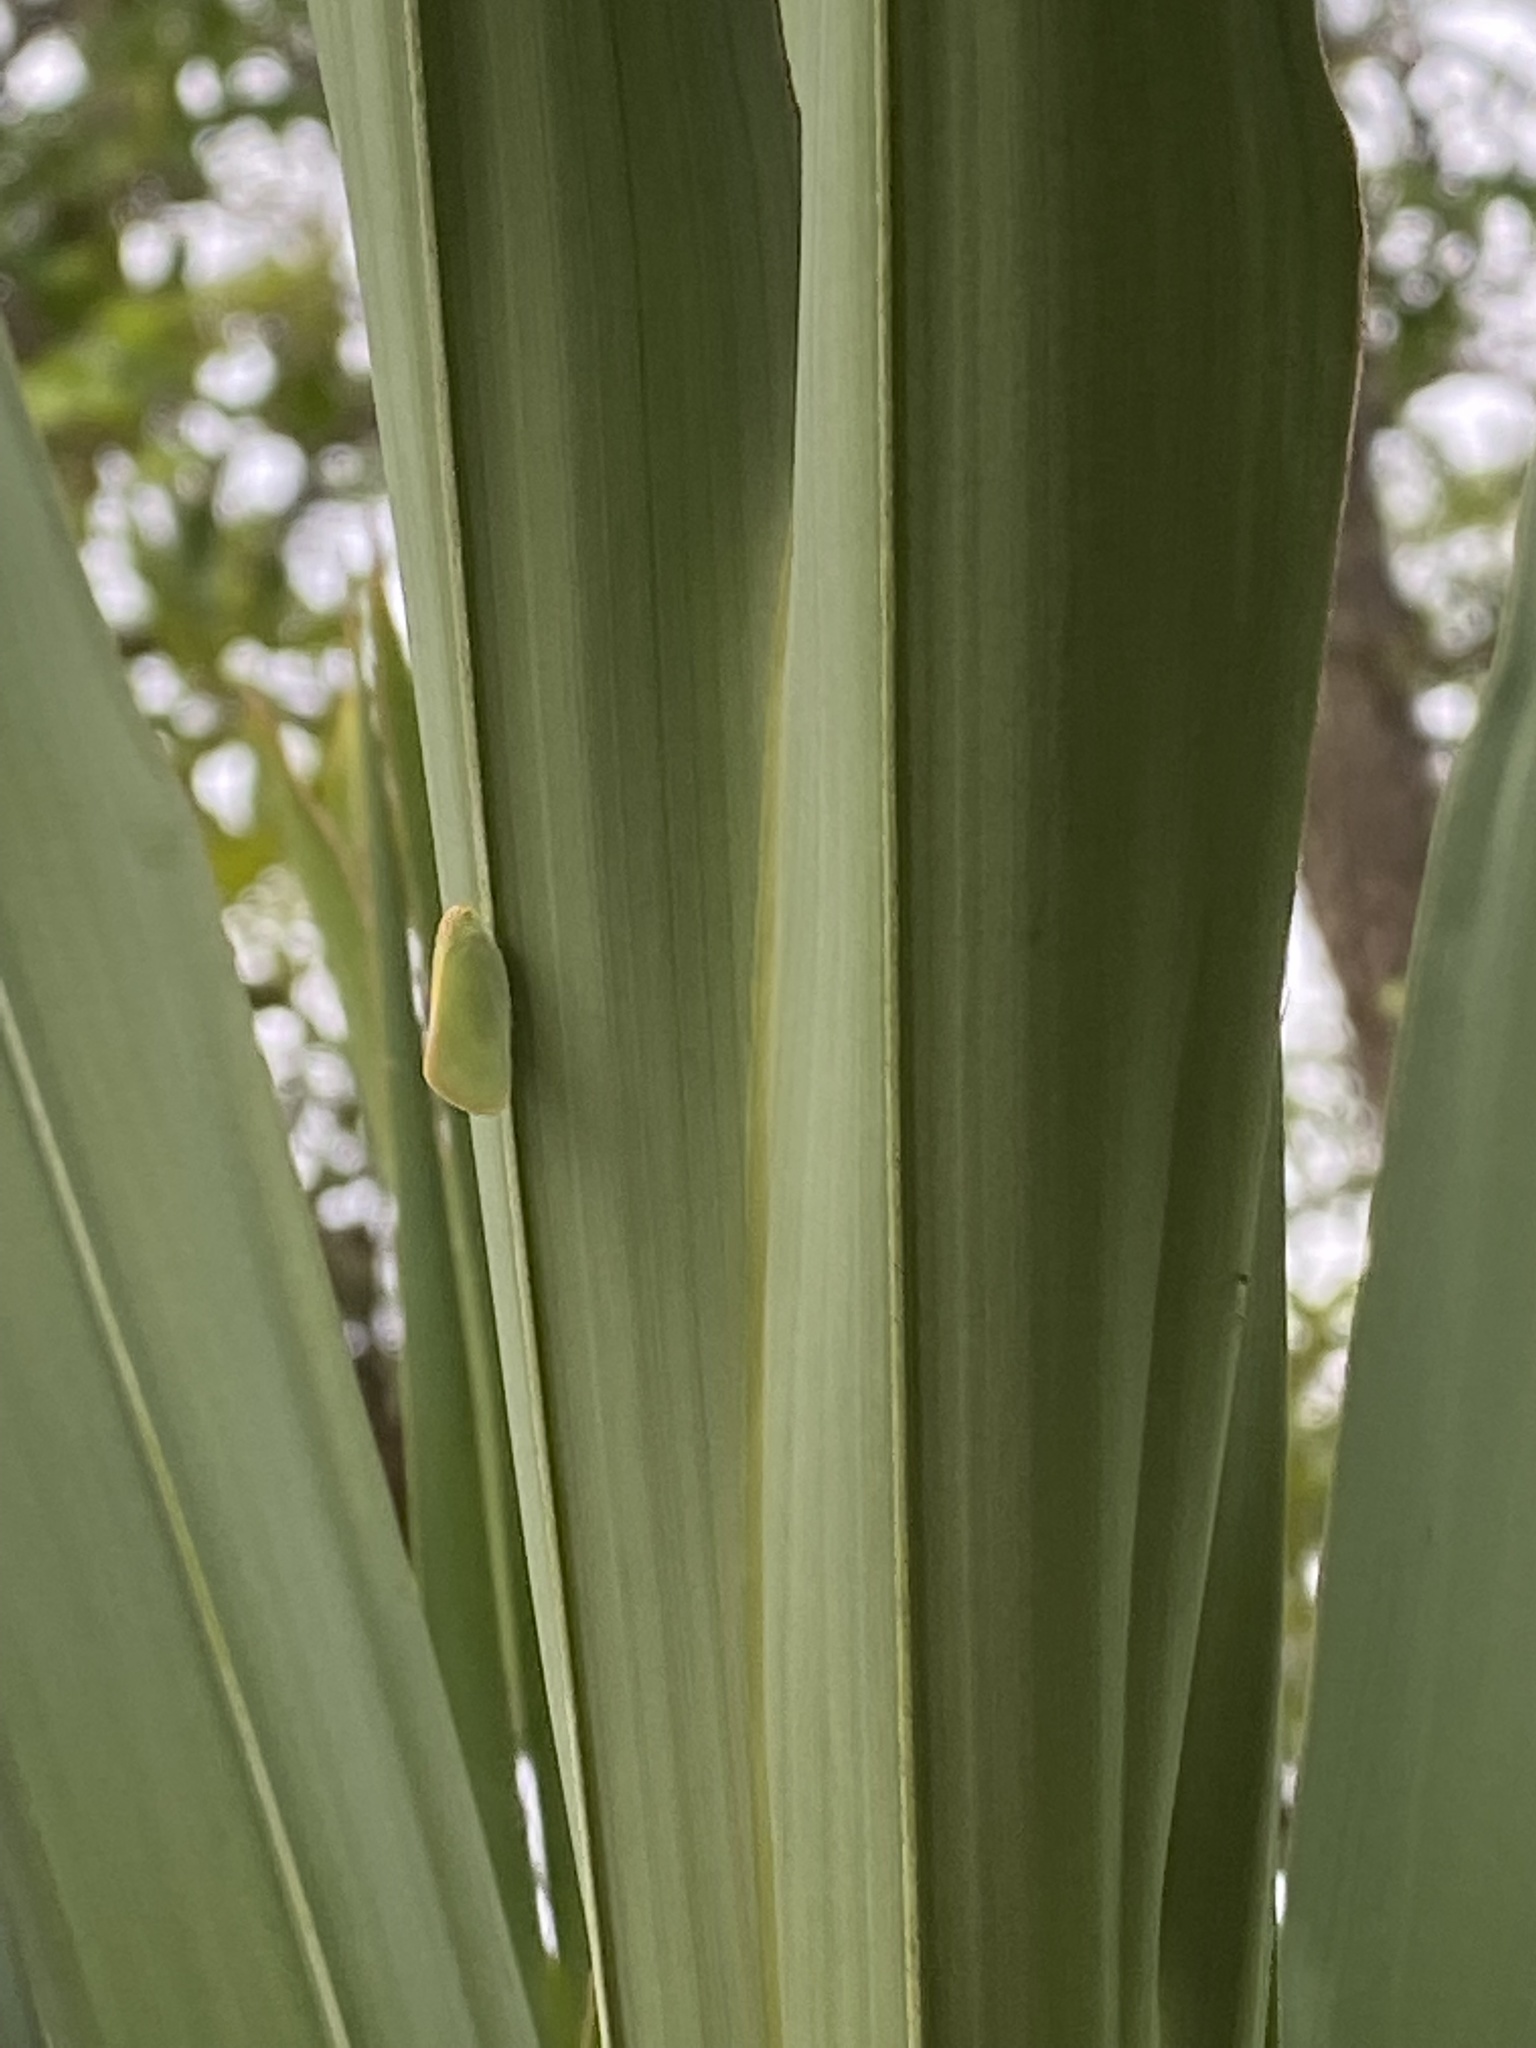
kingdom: Animalia
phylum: Arthropoda
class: Insecta
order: Hemiptera
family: Flatidae
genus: Ormenaria
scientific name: Ormenaria rufifascia
